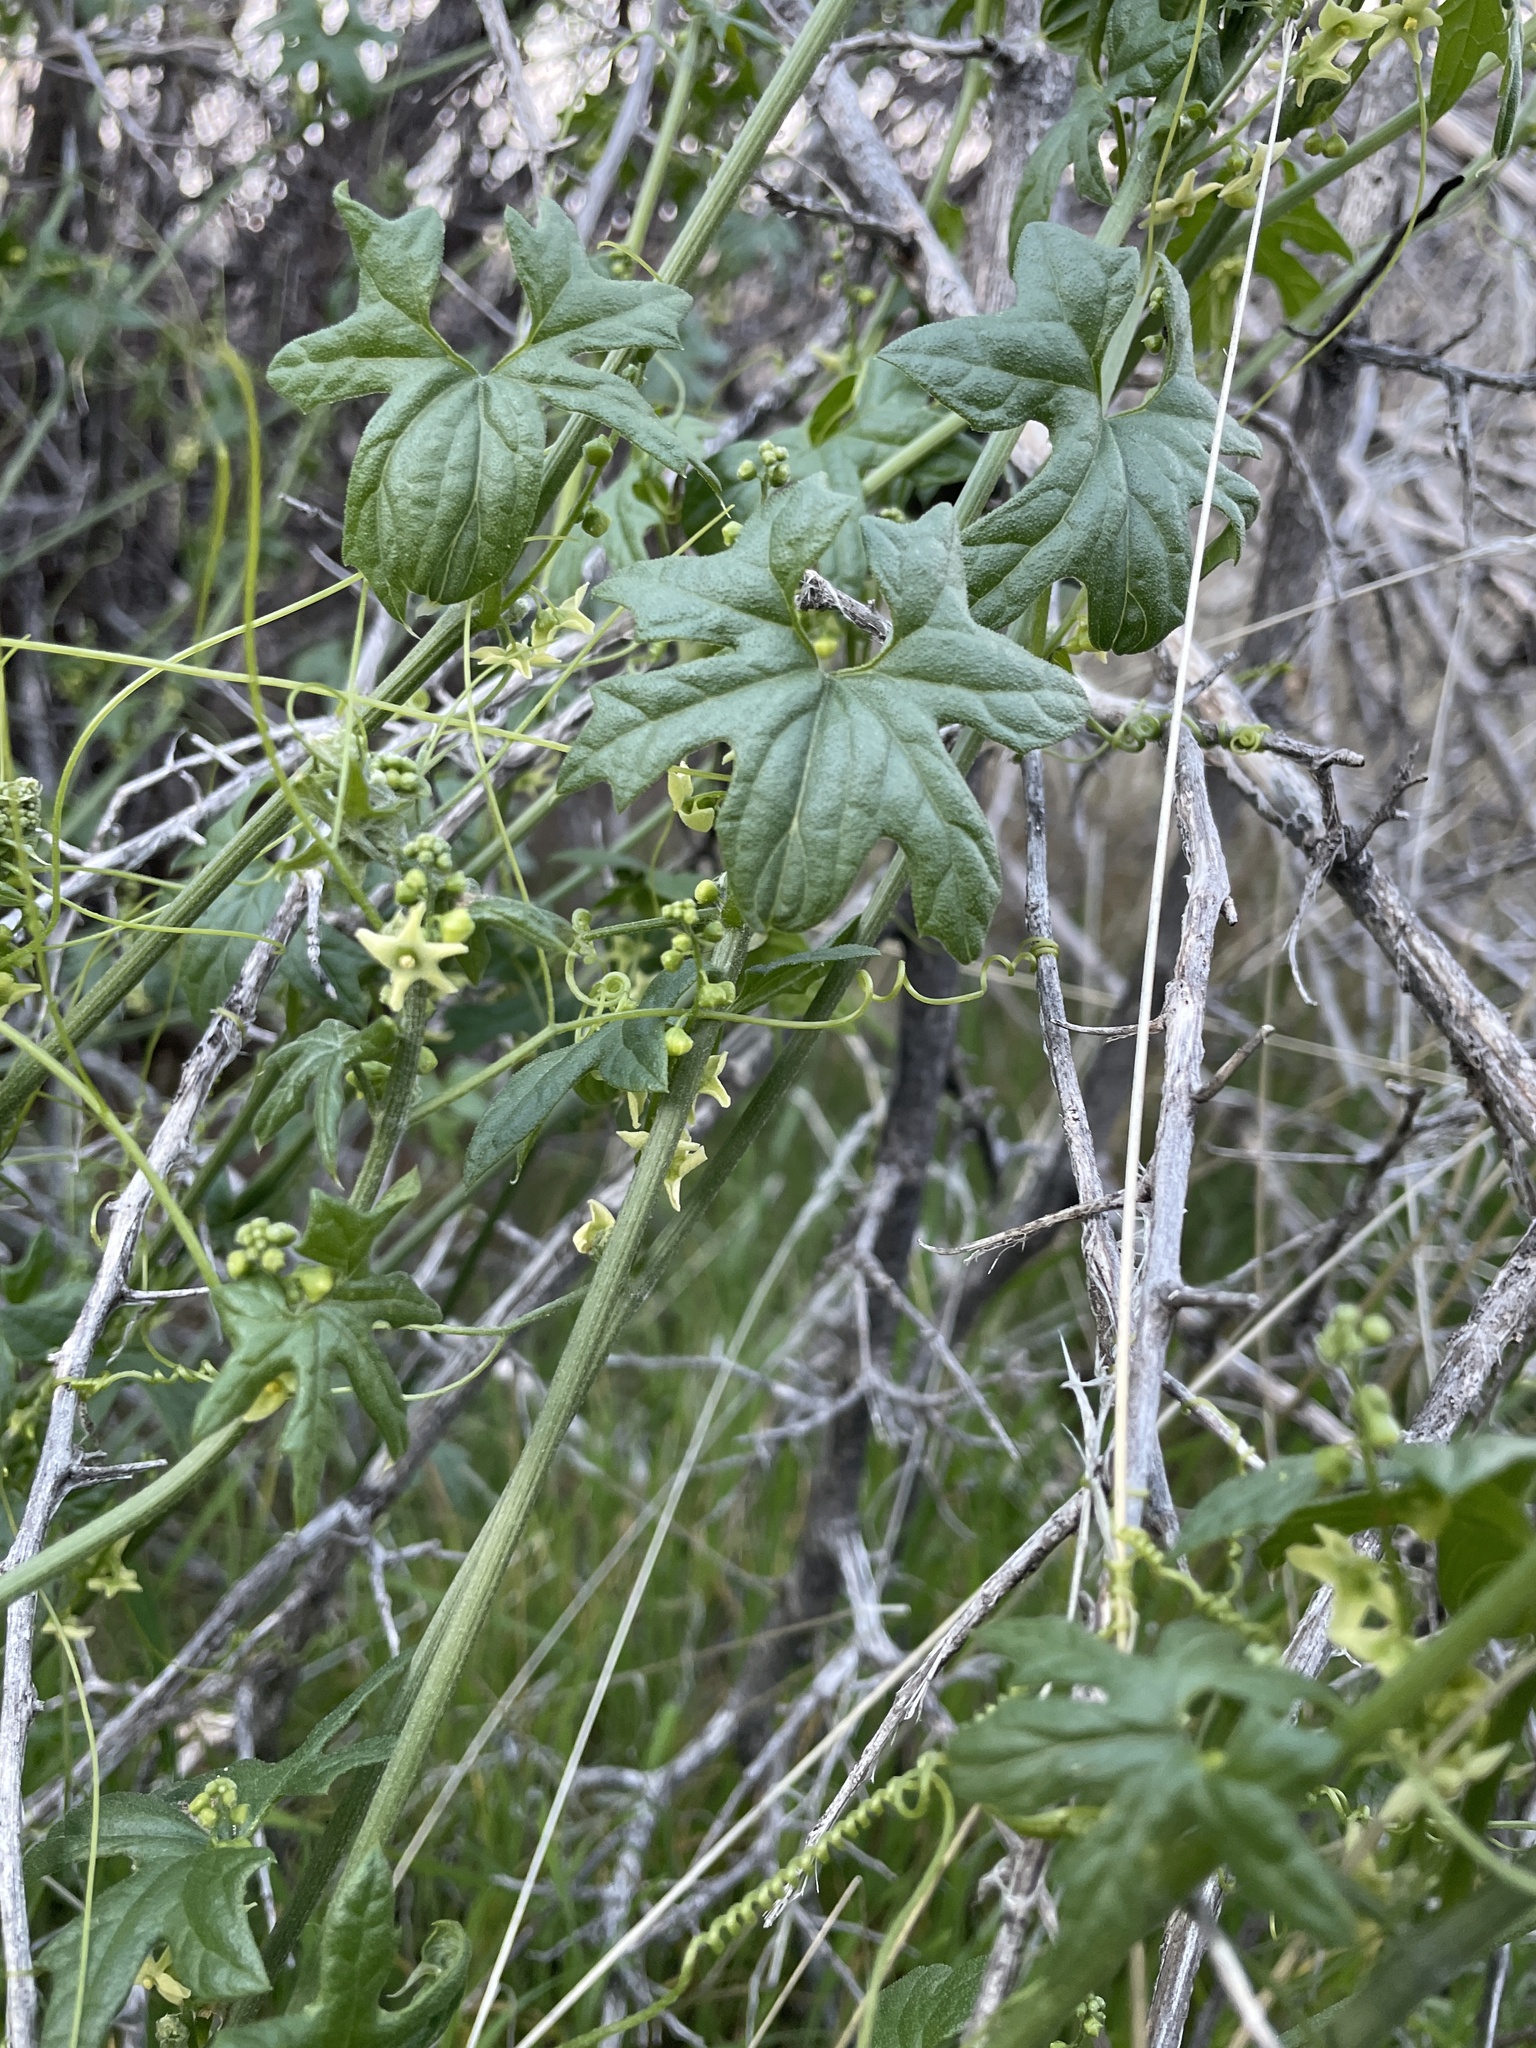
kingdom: Plantae
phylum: Tracheophyta
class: Magnoliopsida
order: Cucurbitales
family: Cucurbitaceae
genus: Marah
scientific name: Marah gilensis
